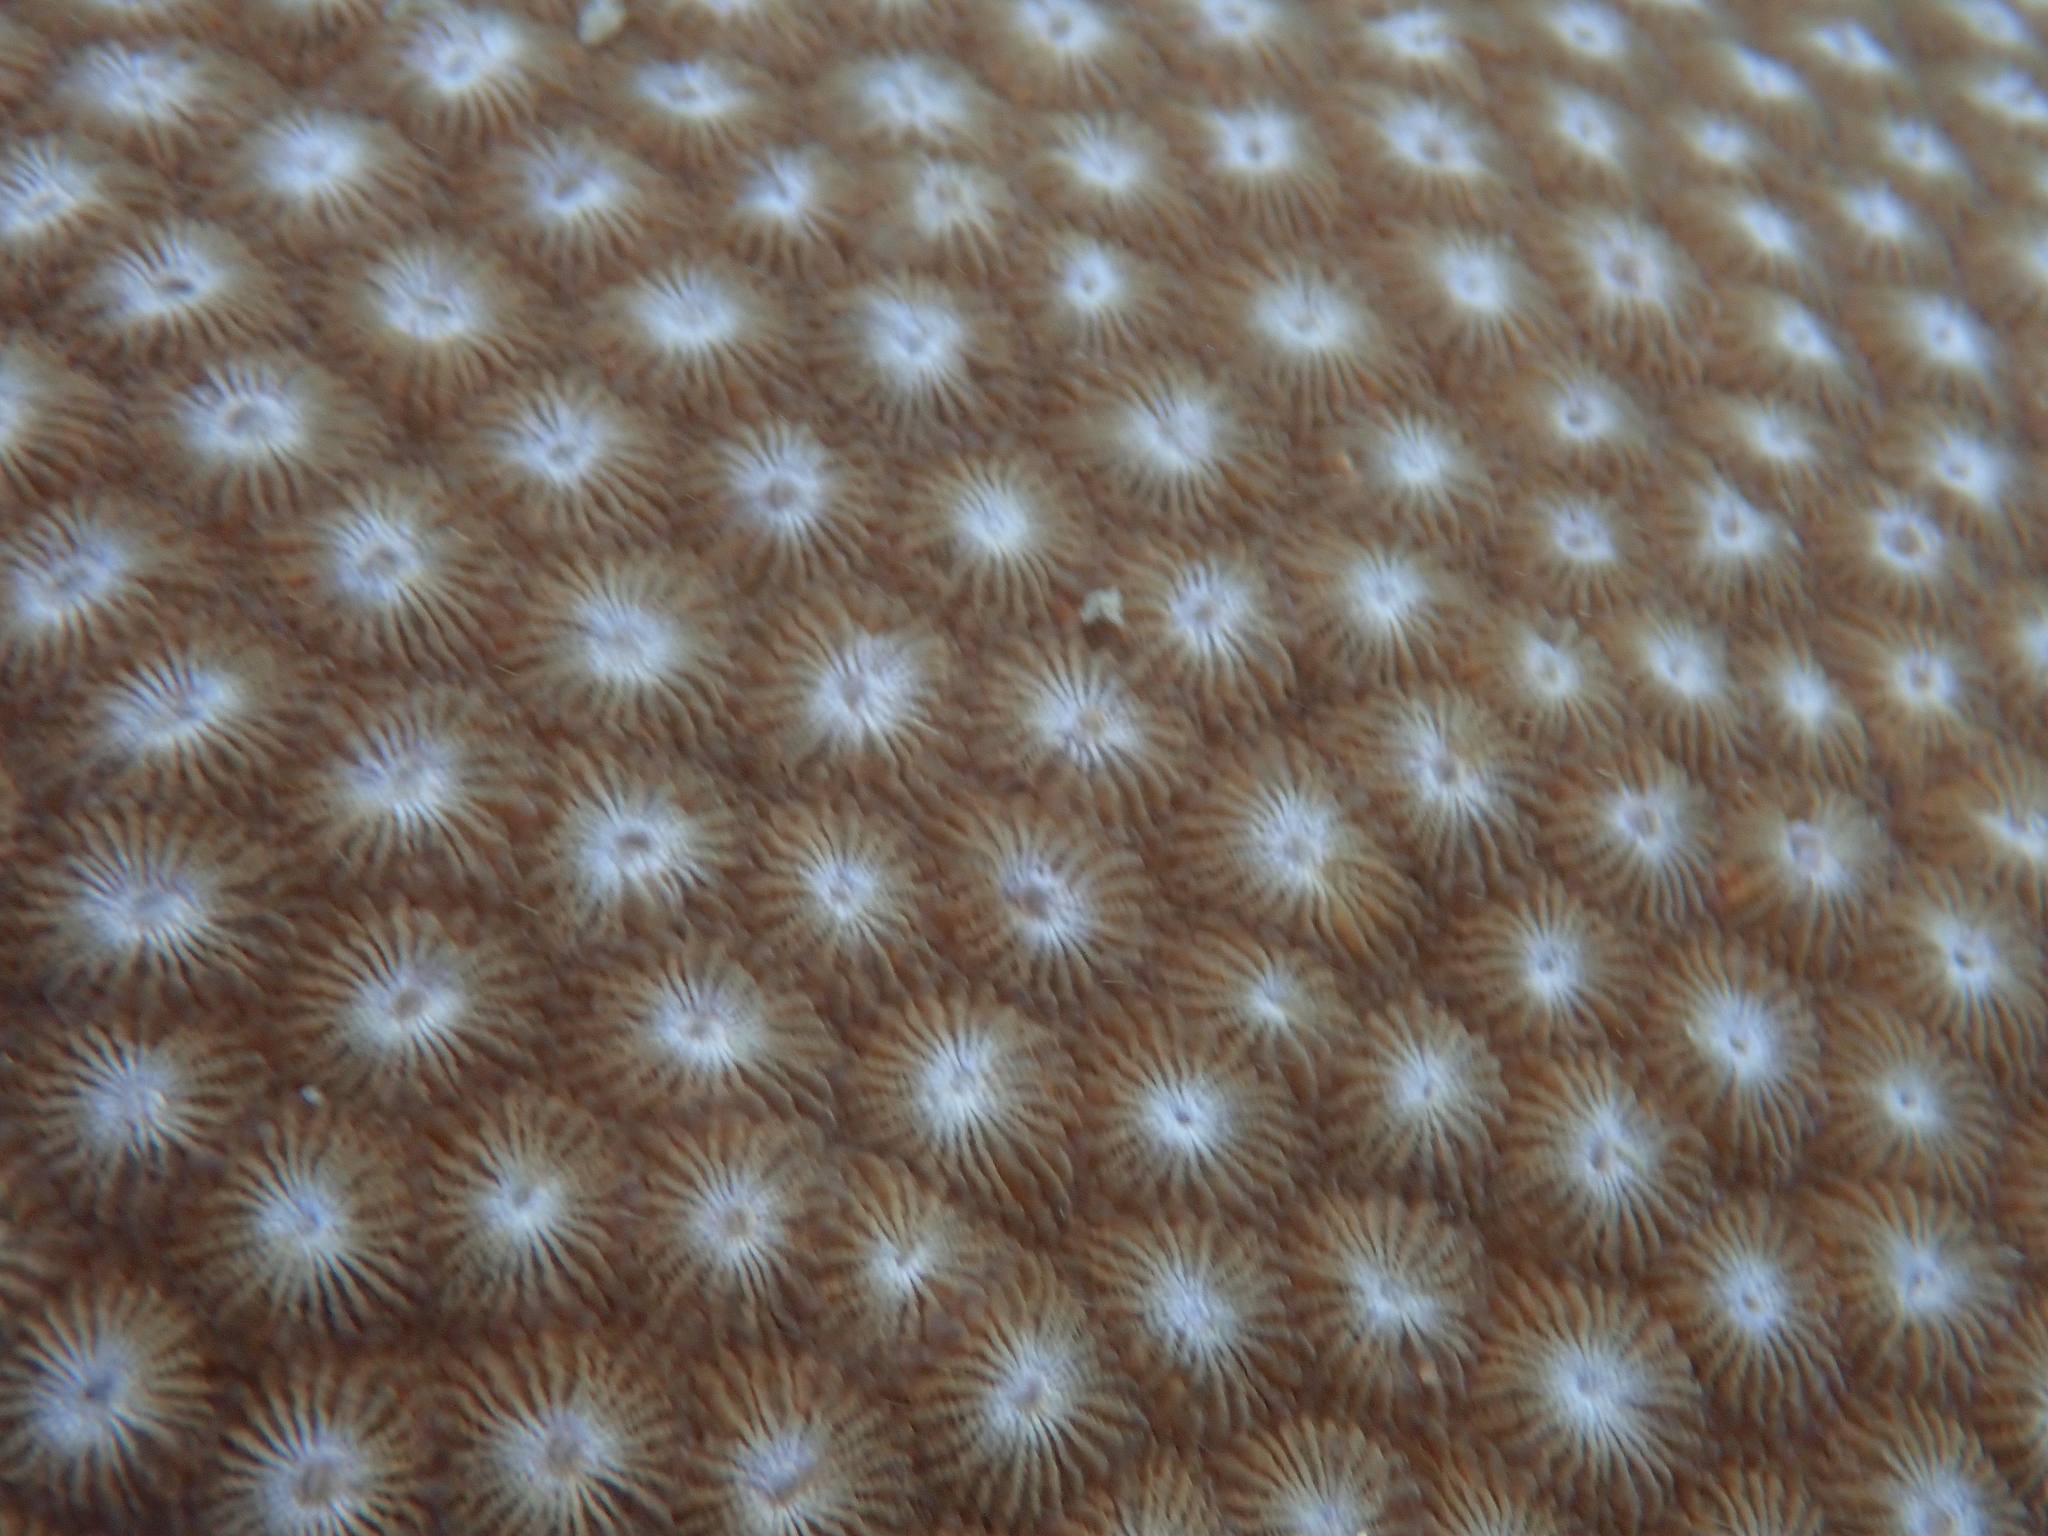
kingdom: Animalia
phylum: Cnidaria
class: Anthozoa
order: Scleractinia
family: Diploastraeidae
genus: Diploastrea
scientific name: Diploastrea heliopora
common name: Double-star coral
